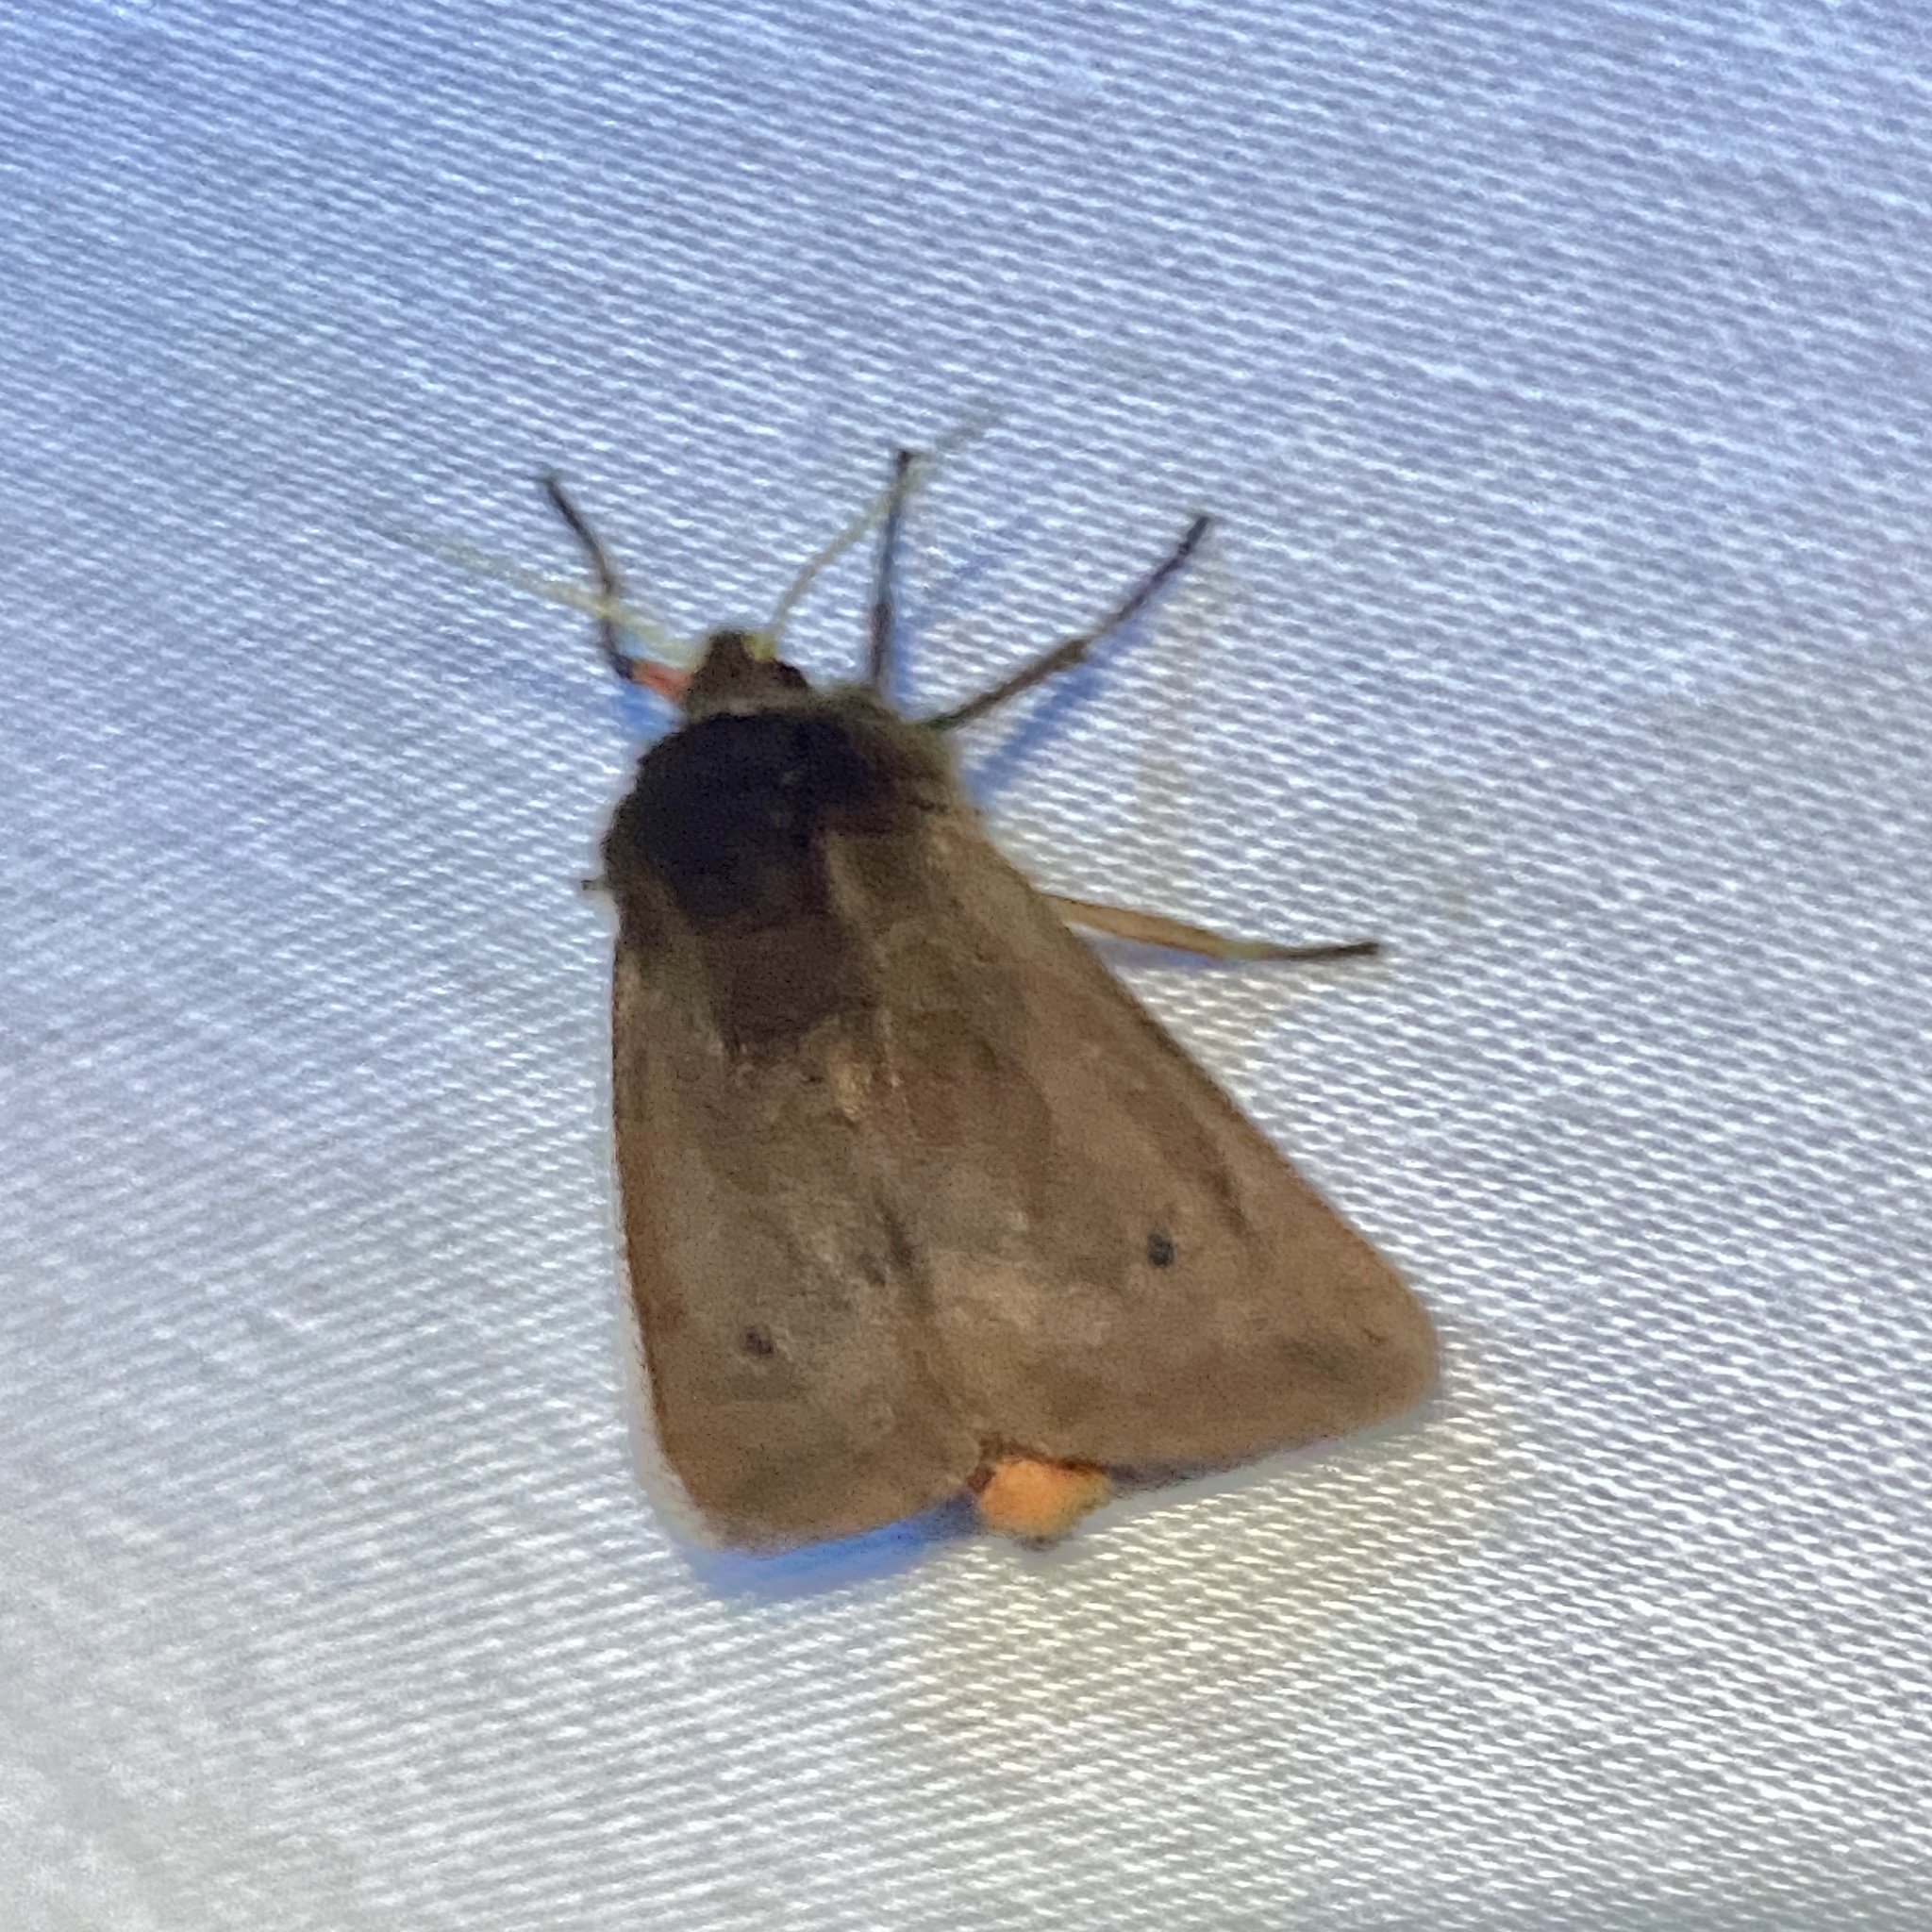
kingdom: Animalia
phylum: Arthropoda
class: Insecta
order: Lepidoptera
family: Erebidae
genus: Phragmatobia
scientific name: Phragmatobia fuliginosa
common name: Ruby tiger
